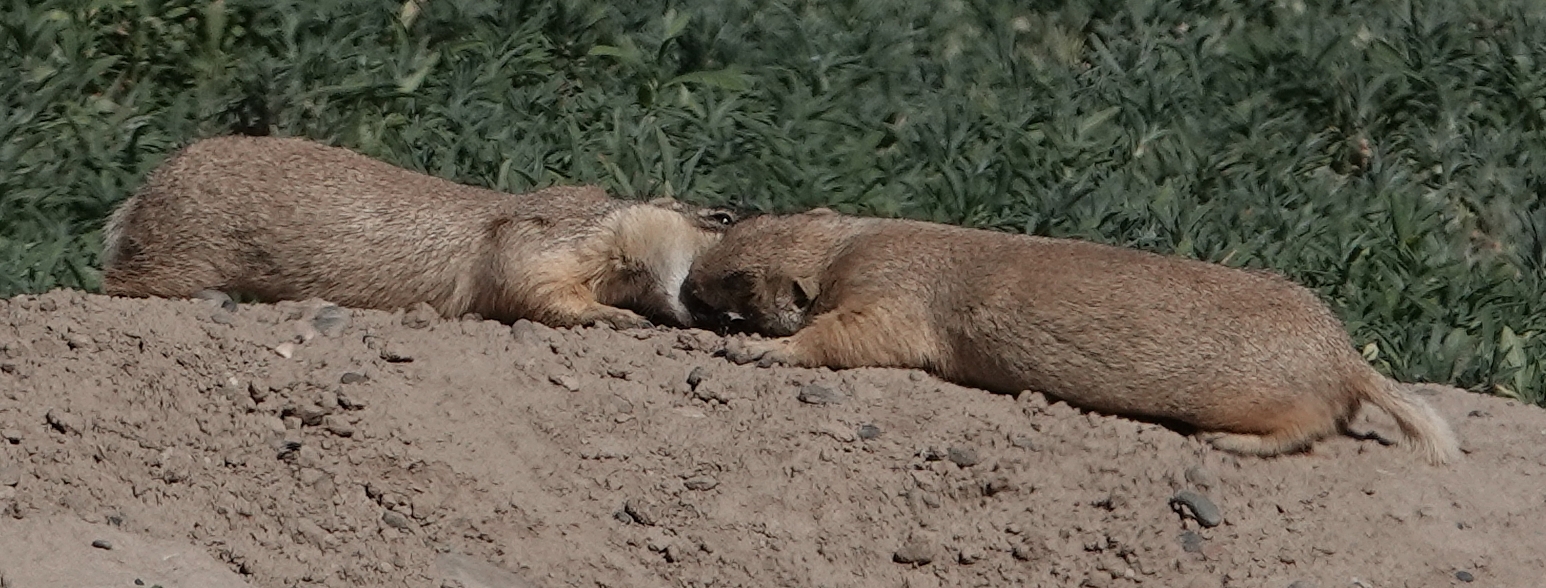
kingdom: Animalia
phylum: Chordata
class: Mammalia
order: Rodentia
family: Sciuridae
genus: Cynomys
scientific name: Cynomys leucurus
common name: White-tailed prairie dog
